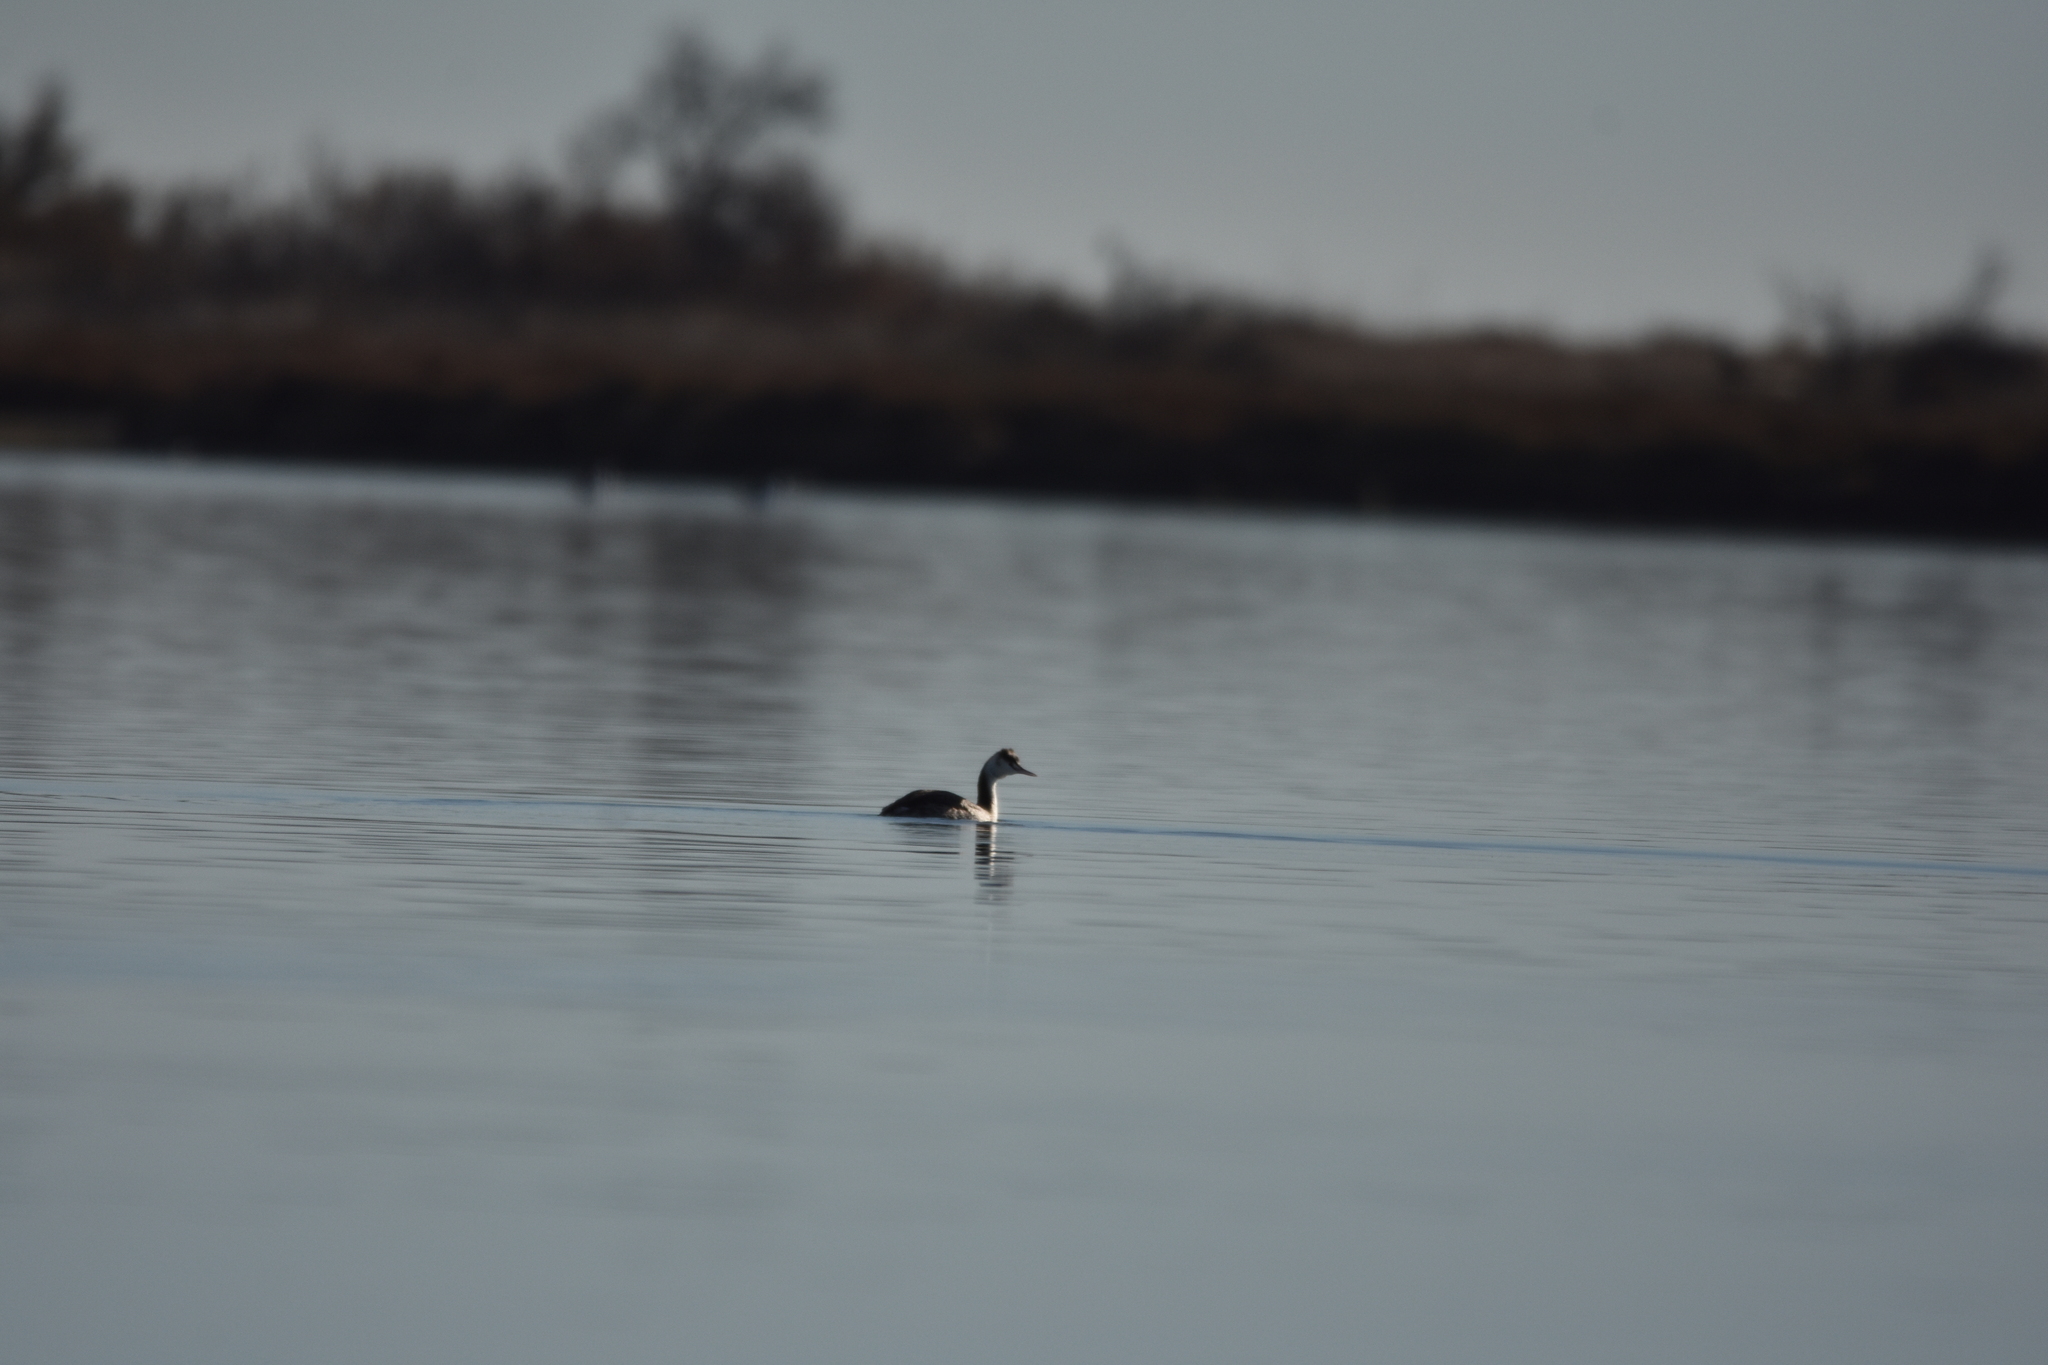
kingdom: Animalia
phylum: Chordata
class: Aves
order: Podicipediformes
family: Podicipedidae
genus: Podiceps
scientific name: Podiceps cristatus
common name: Great crested grebe
